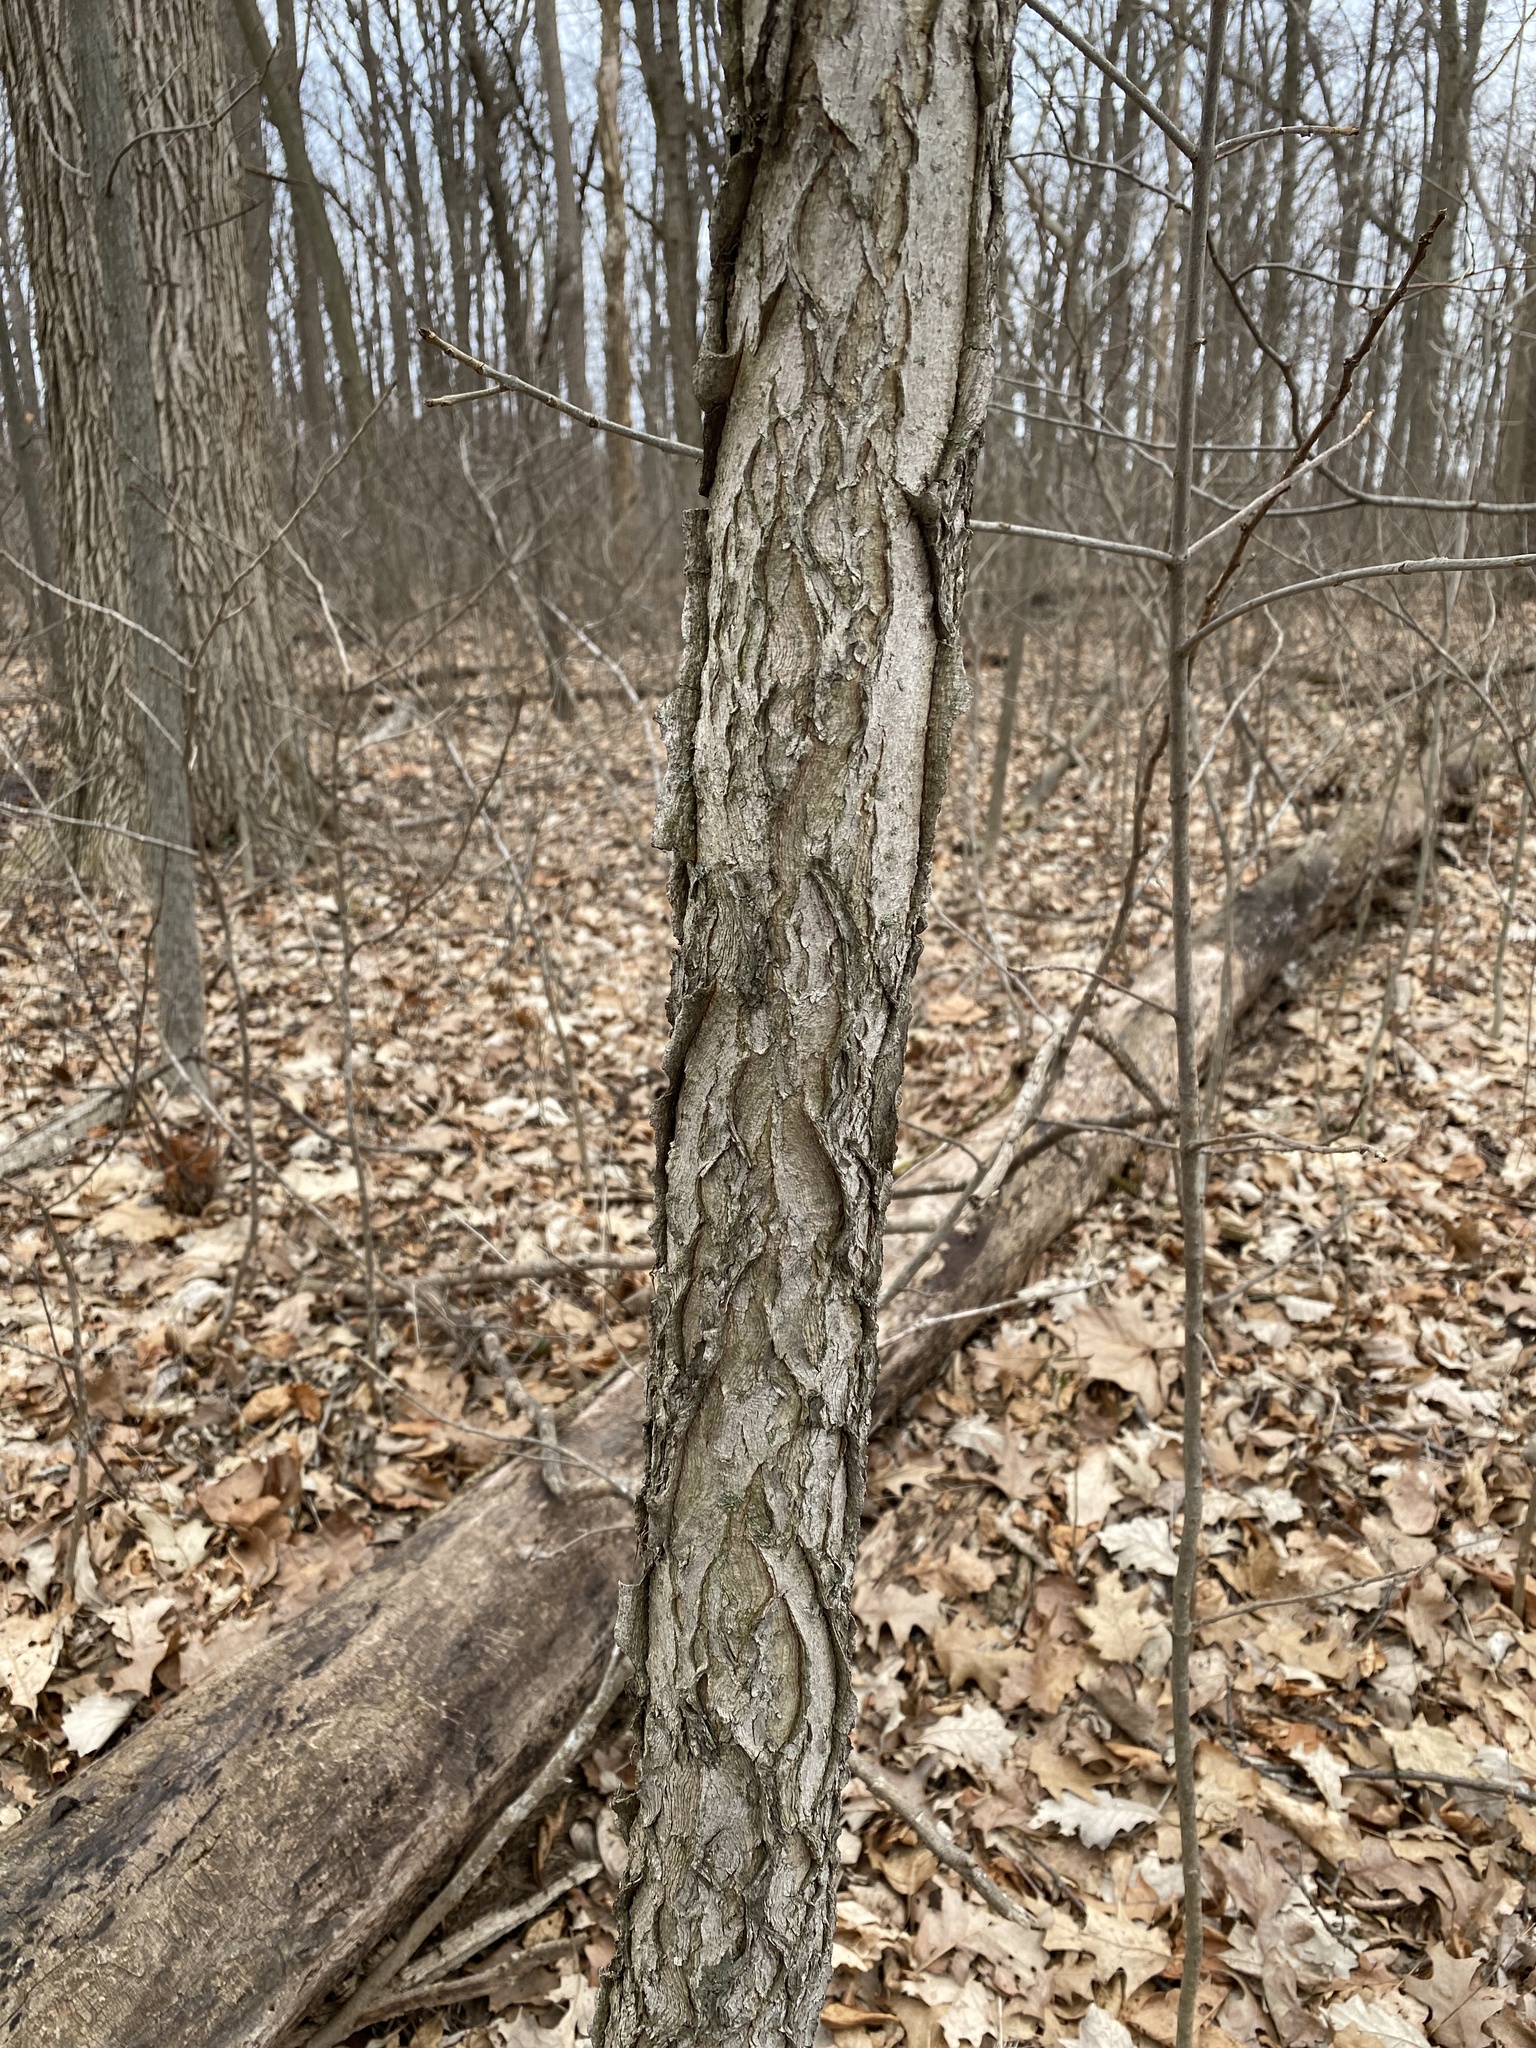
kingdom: Plantae
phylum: Tracheophyta
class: Magnoliopsida
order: Fabales
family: Fabaceae
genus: Gymnocladus
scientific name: Gymnocladus dioicus
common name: Kentucky coffee-tree
